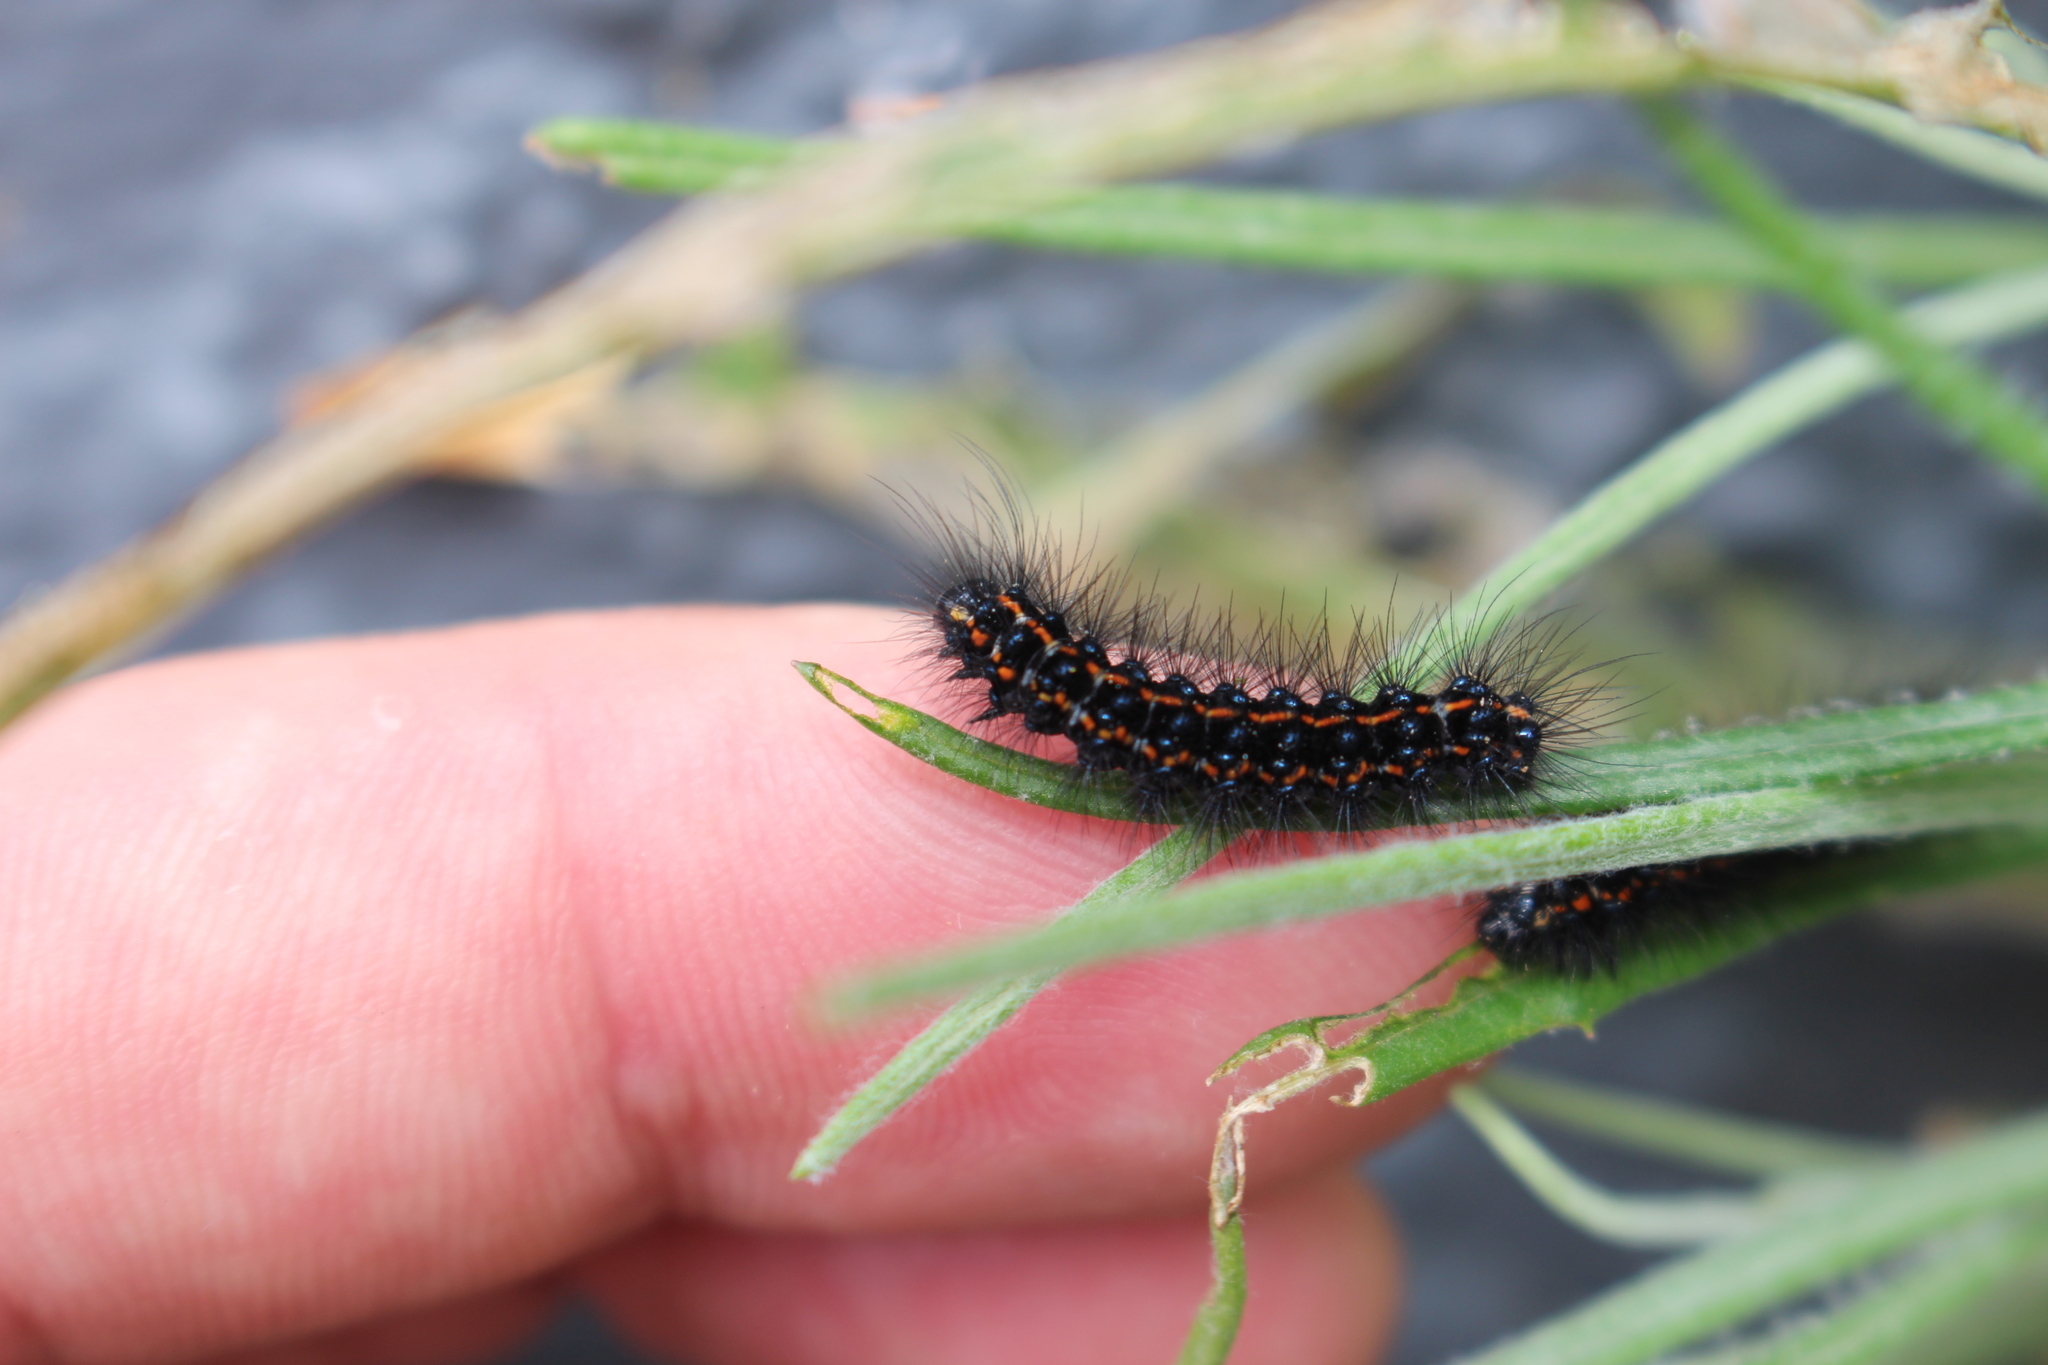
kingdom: Animalia
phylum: Arthropoda
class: Insecta
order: Lepidoptera
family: Erebidae
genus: Nyctemera
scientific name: Nyctemera annulatum
